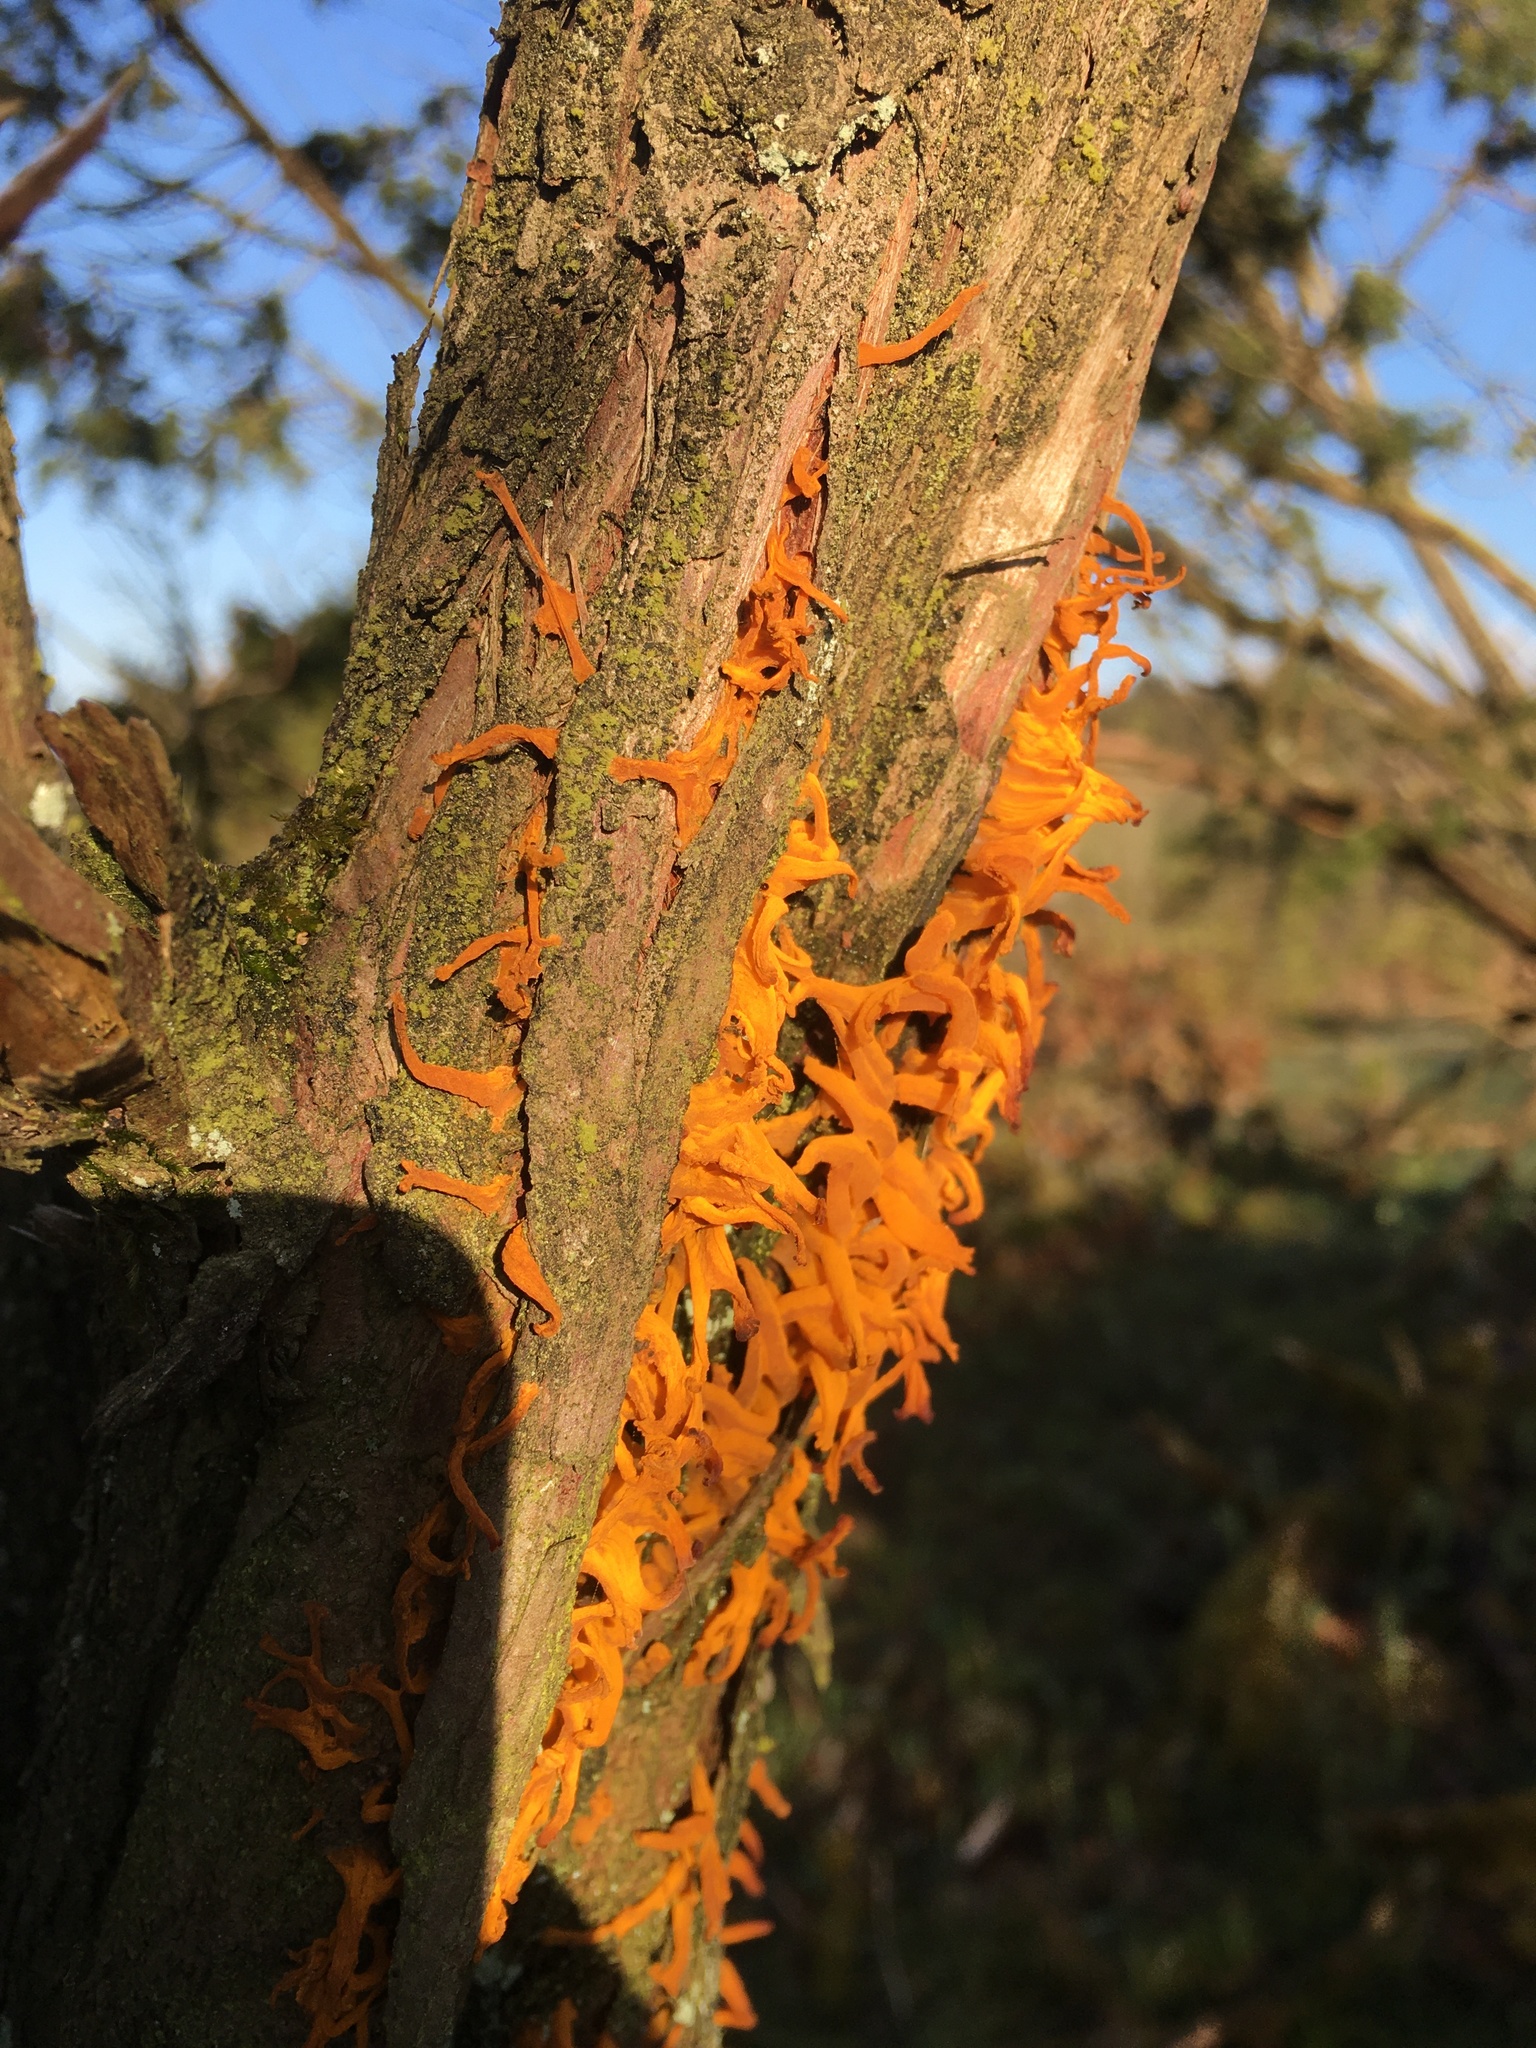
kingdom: Fungi
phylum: Basidiomycota
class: Pucciniomycetes
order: Pucciniales
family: Gymnosporangiaceae
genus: Gymnosporangium
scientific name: Gymnosporangium clavariiforme
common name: Tongues of fire
